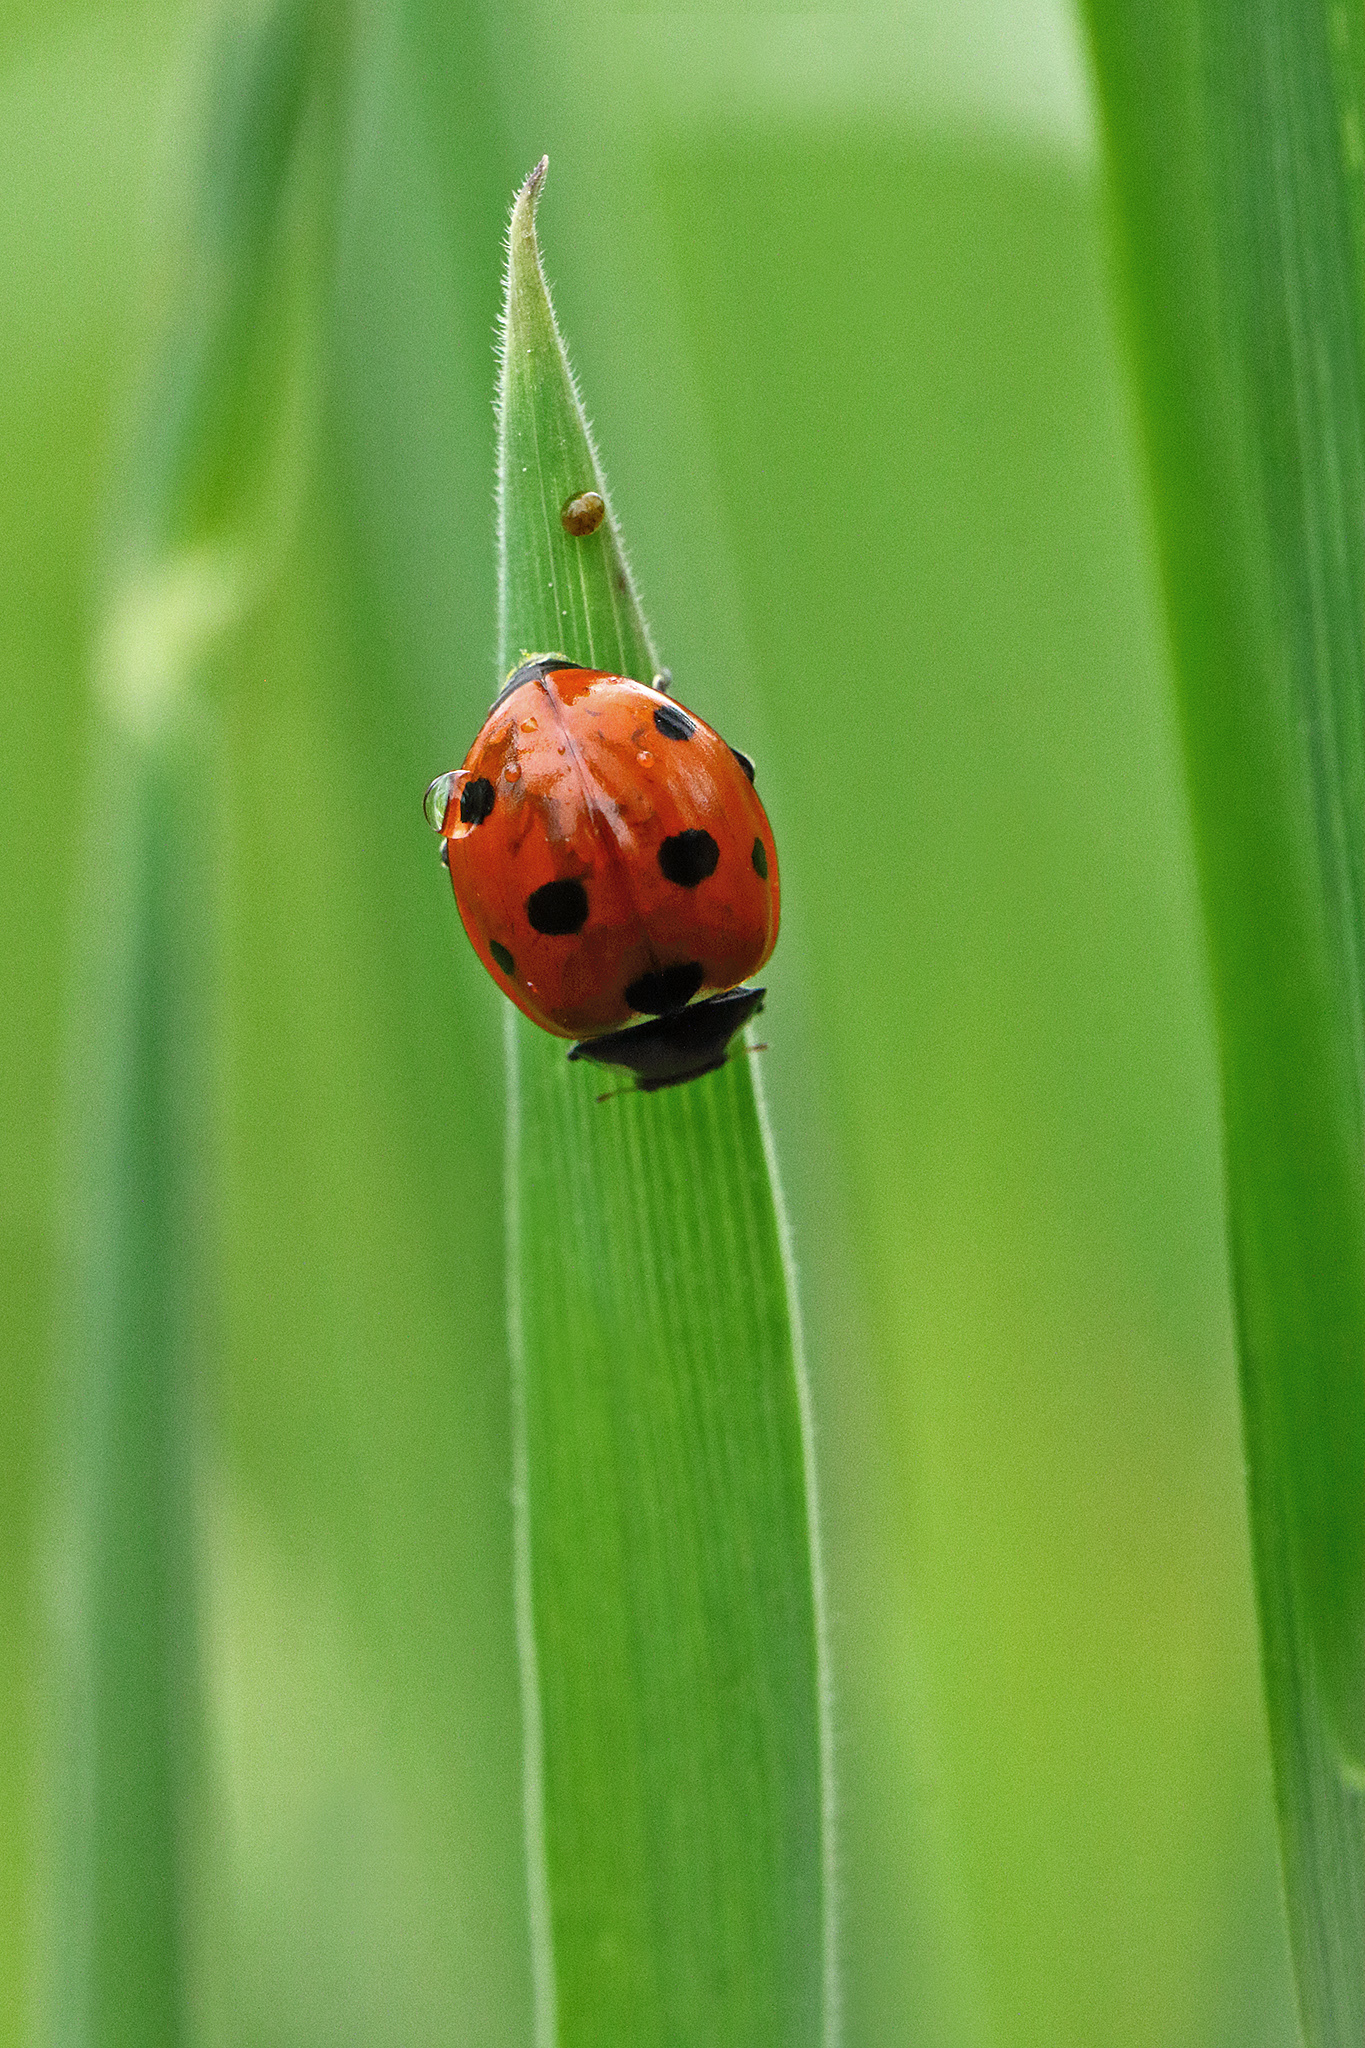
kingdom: Animalia
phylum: Arthropoda
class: Insecta
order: Coleoptera
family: Coccinellidae
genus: Coccinella
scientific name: Coccinella septempunctata
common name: Sevenspotted lady beetle
